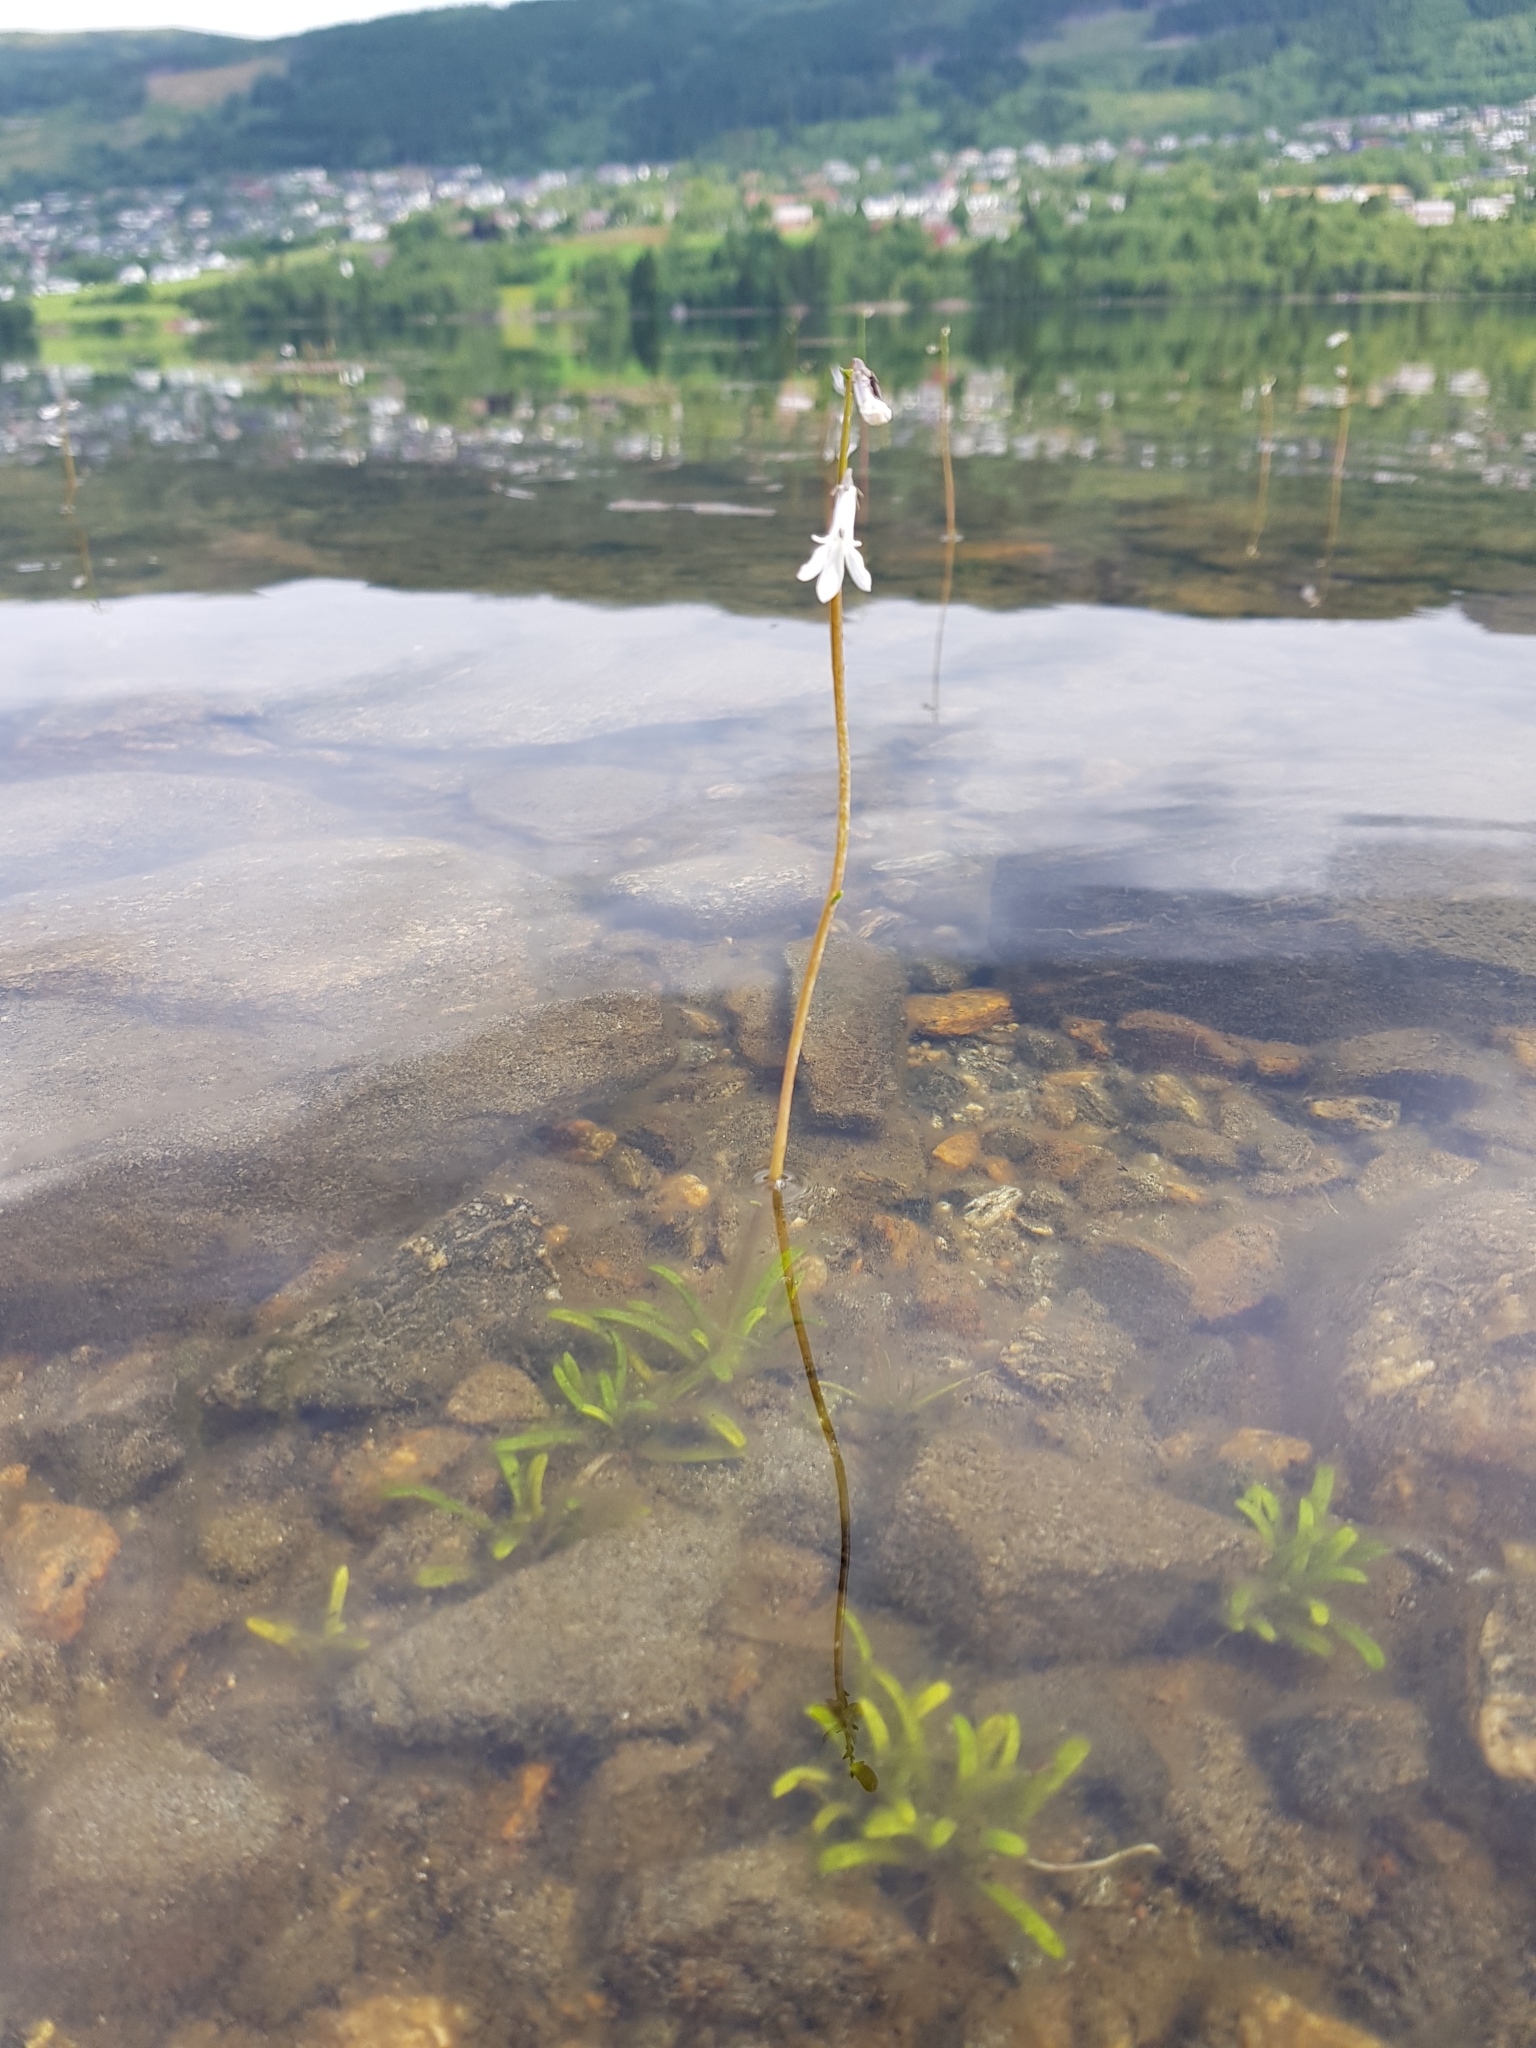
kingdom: Plantae
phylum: Tracheophyta
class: Magnoliopsida
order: Asterales
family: Campanulaceae
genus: Lobelia
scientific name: Lobelia dortmanna
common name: Water lobelia
